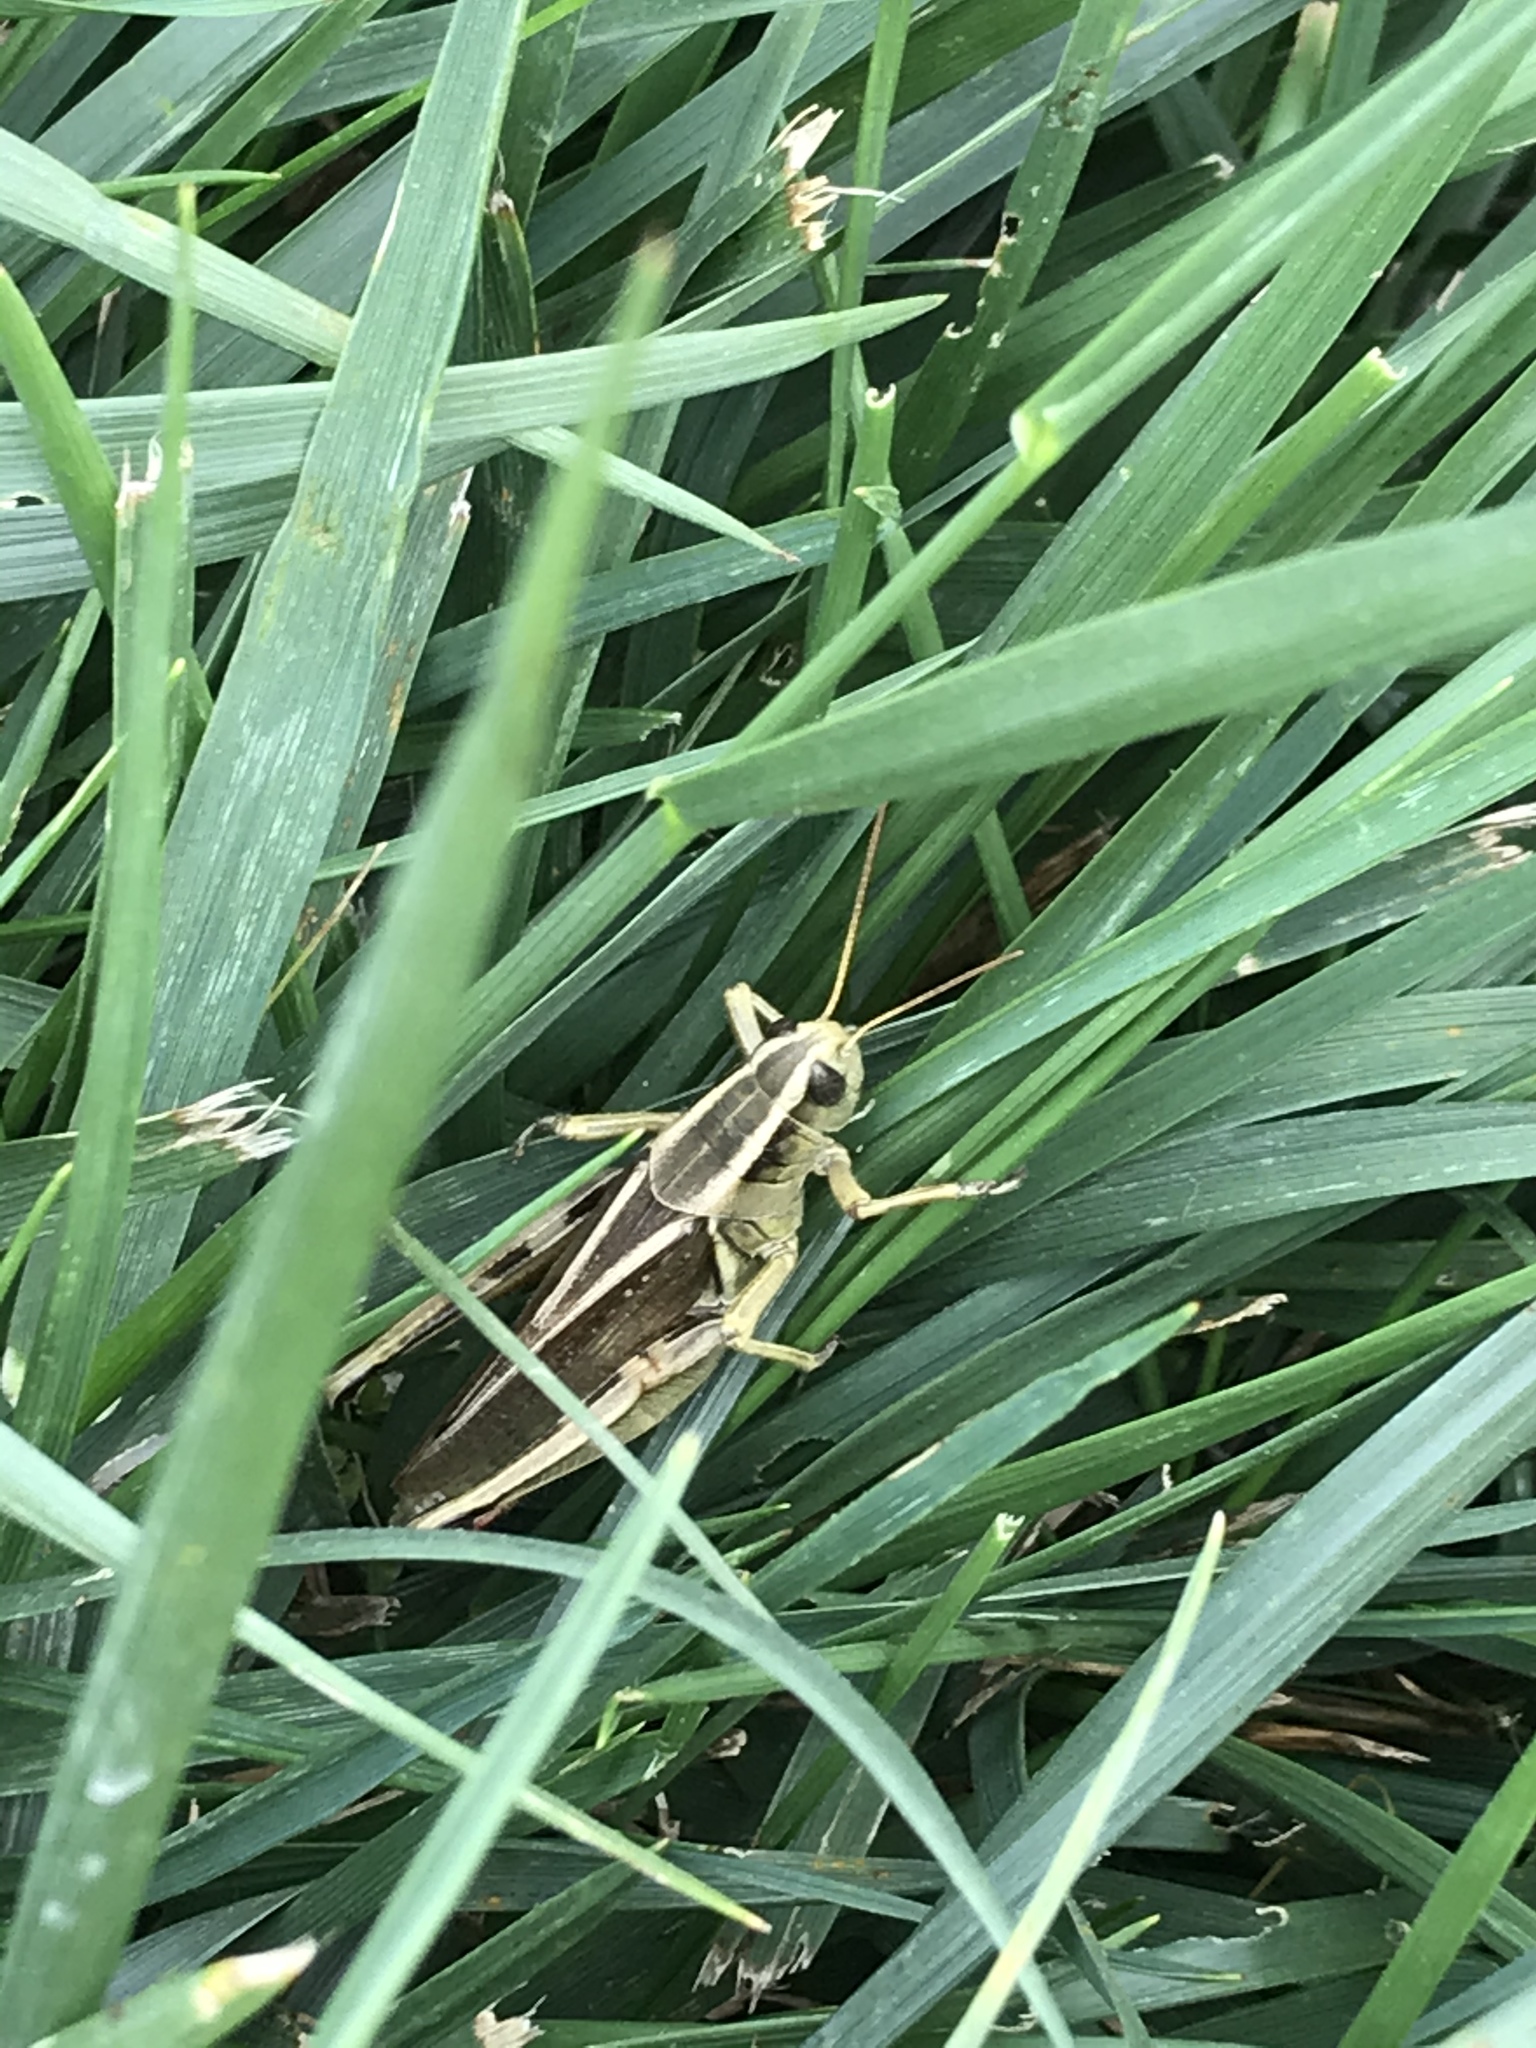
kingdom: Animalia
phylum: Arthropoda
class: Insecta
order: Orthoptera
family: Acrididae
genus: Melanoplus
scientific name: Melanoplus bivittatus
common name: Two-striped grasshopper
